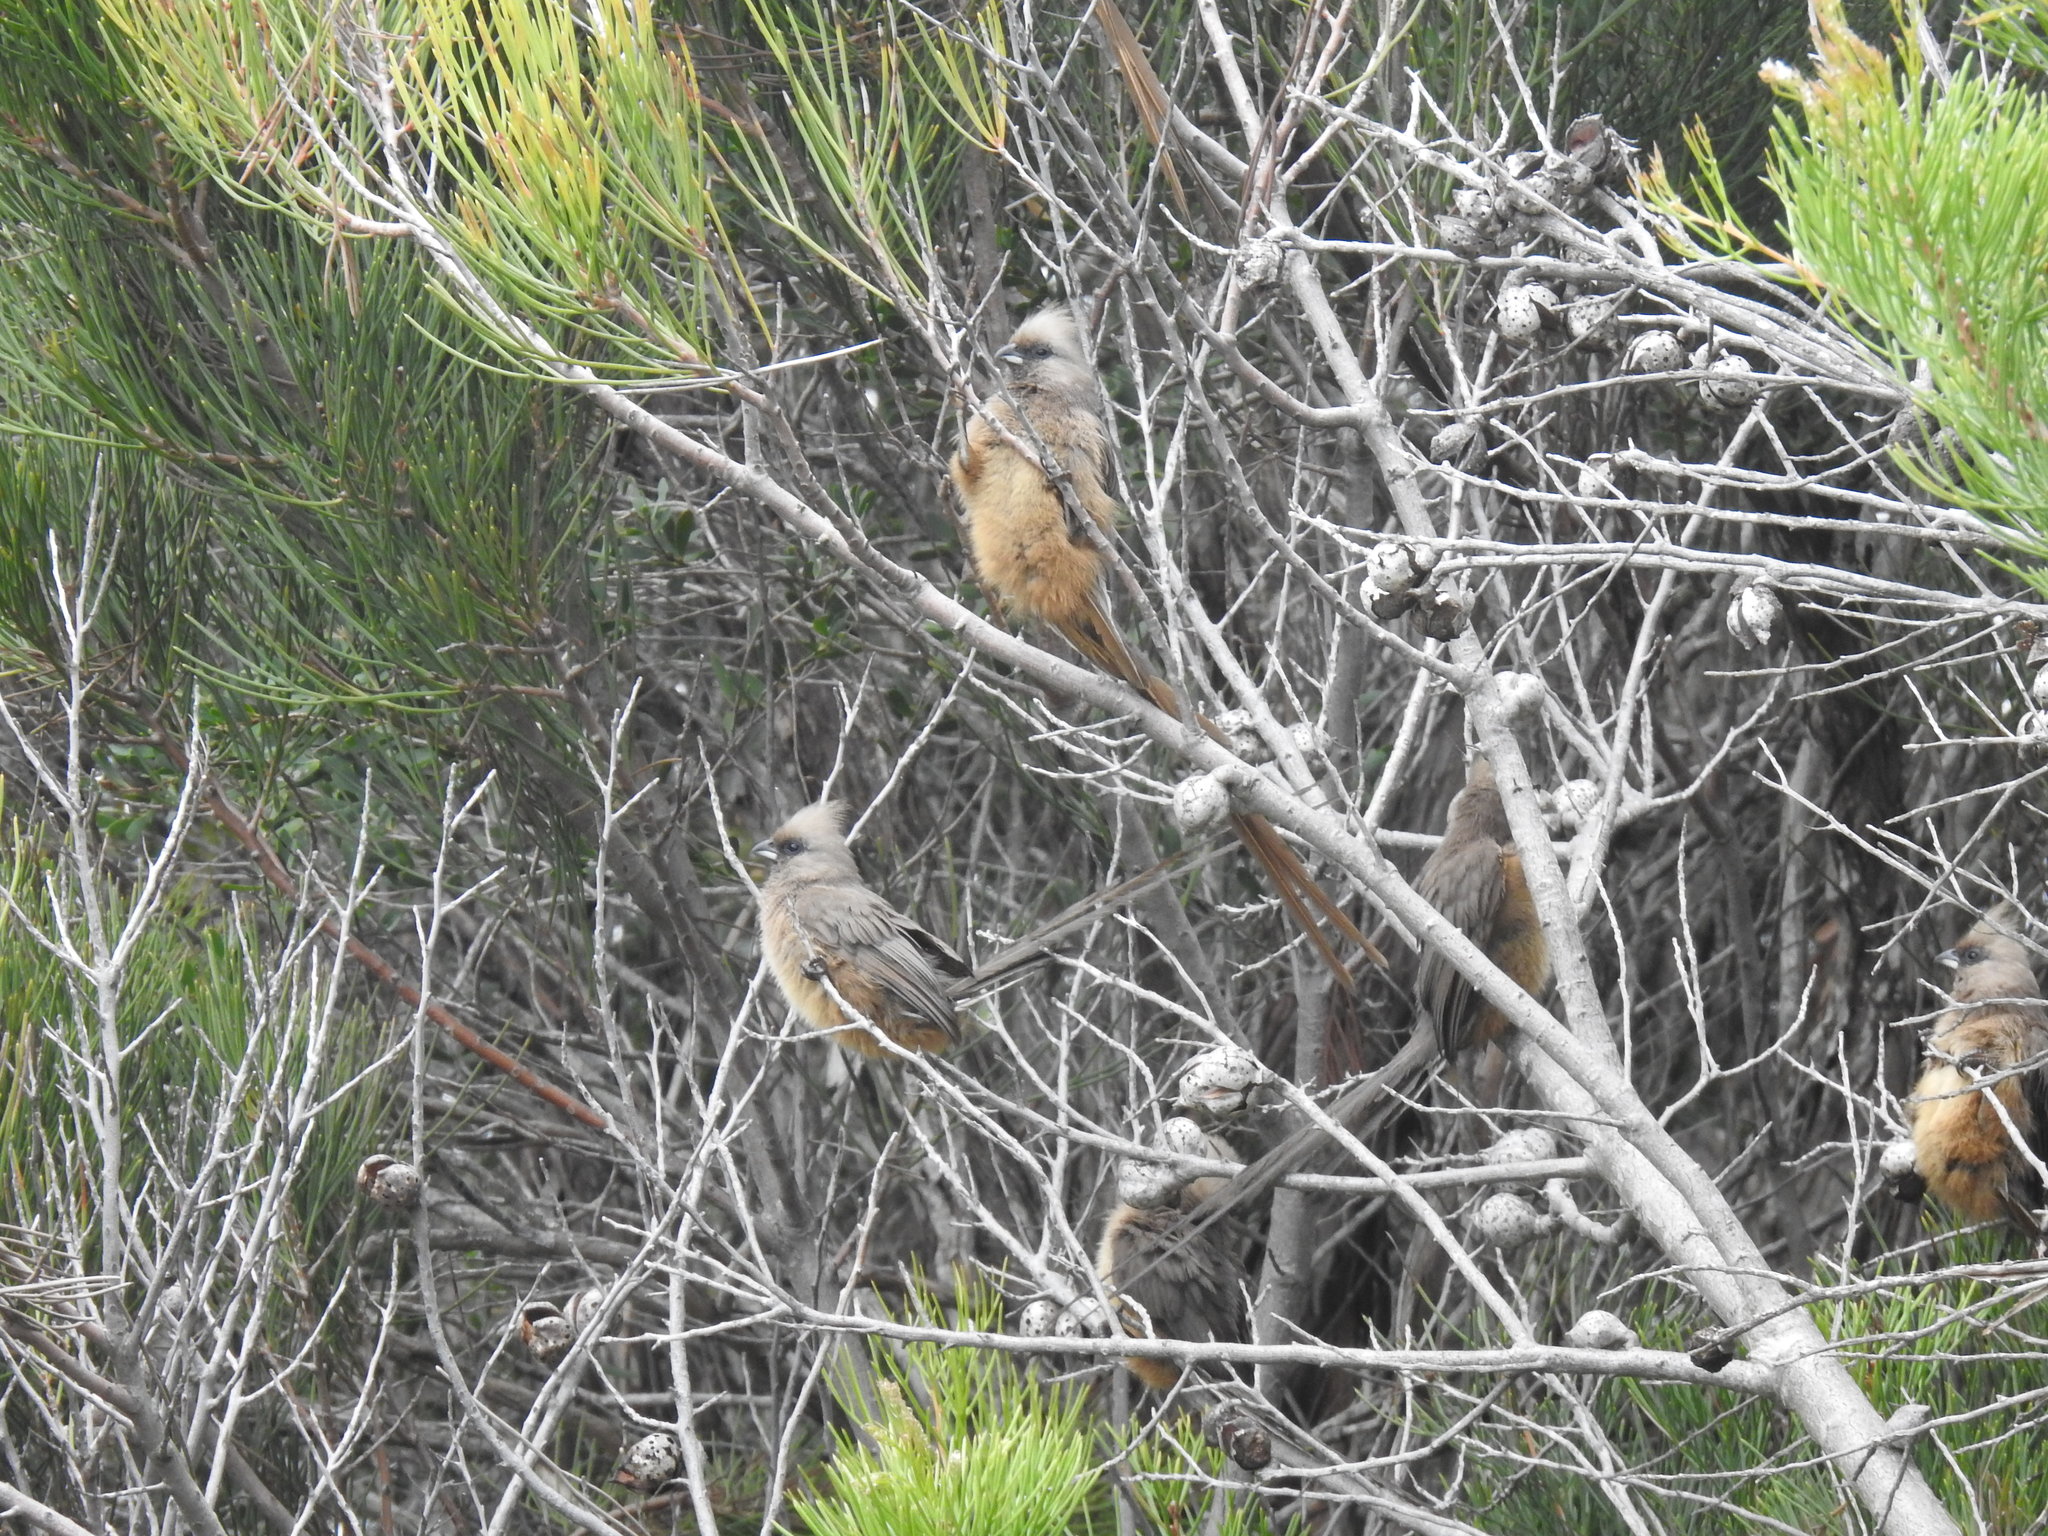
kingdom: Animalia
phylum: Chordata
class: Aves
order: Coliiformes
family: Coliidae
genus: Colius
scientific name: Colius striatus
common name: Speckled mousebird
